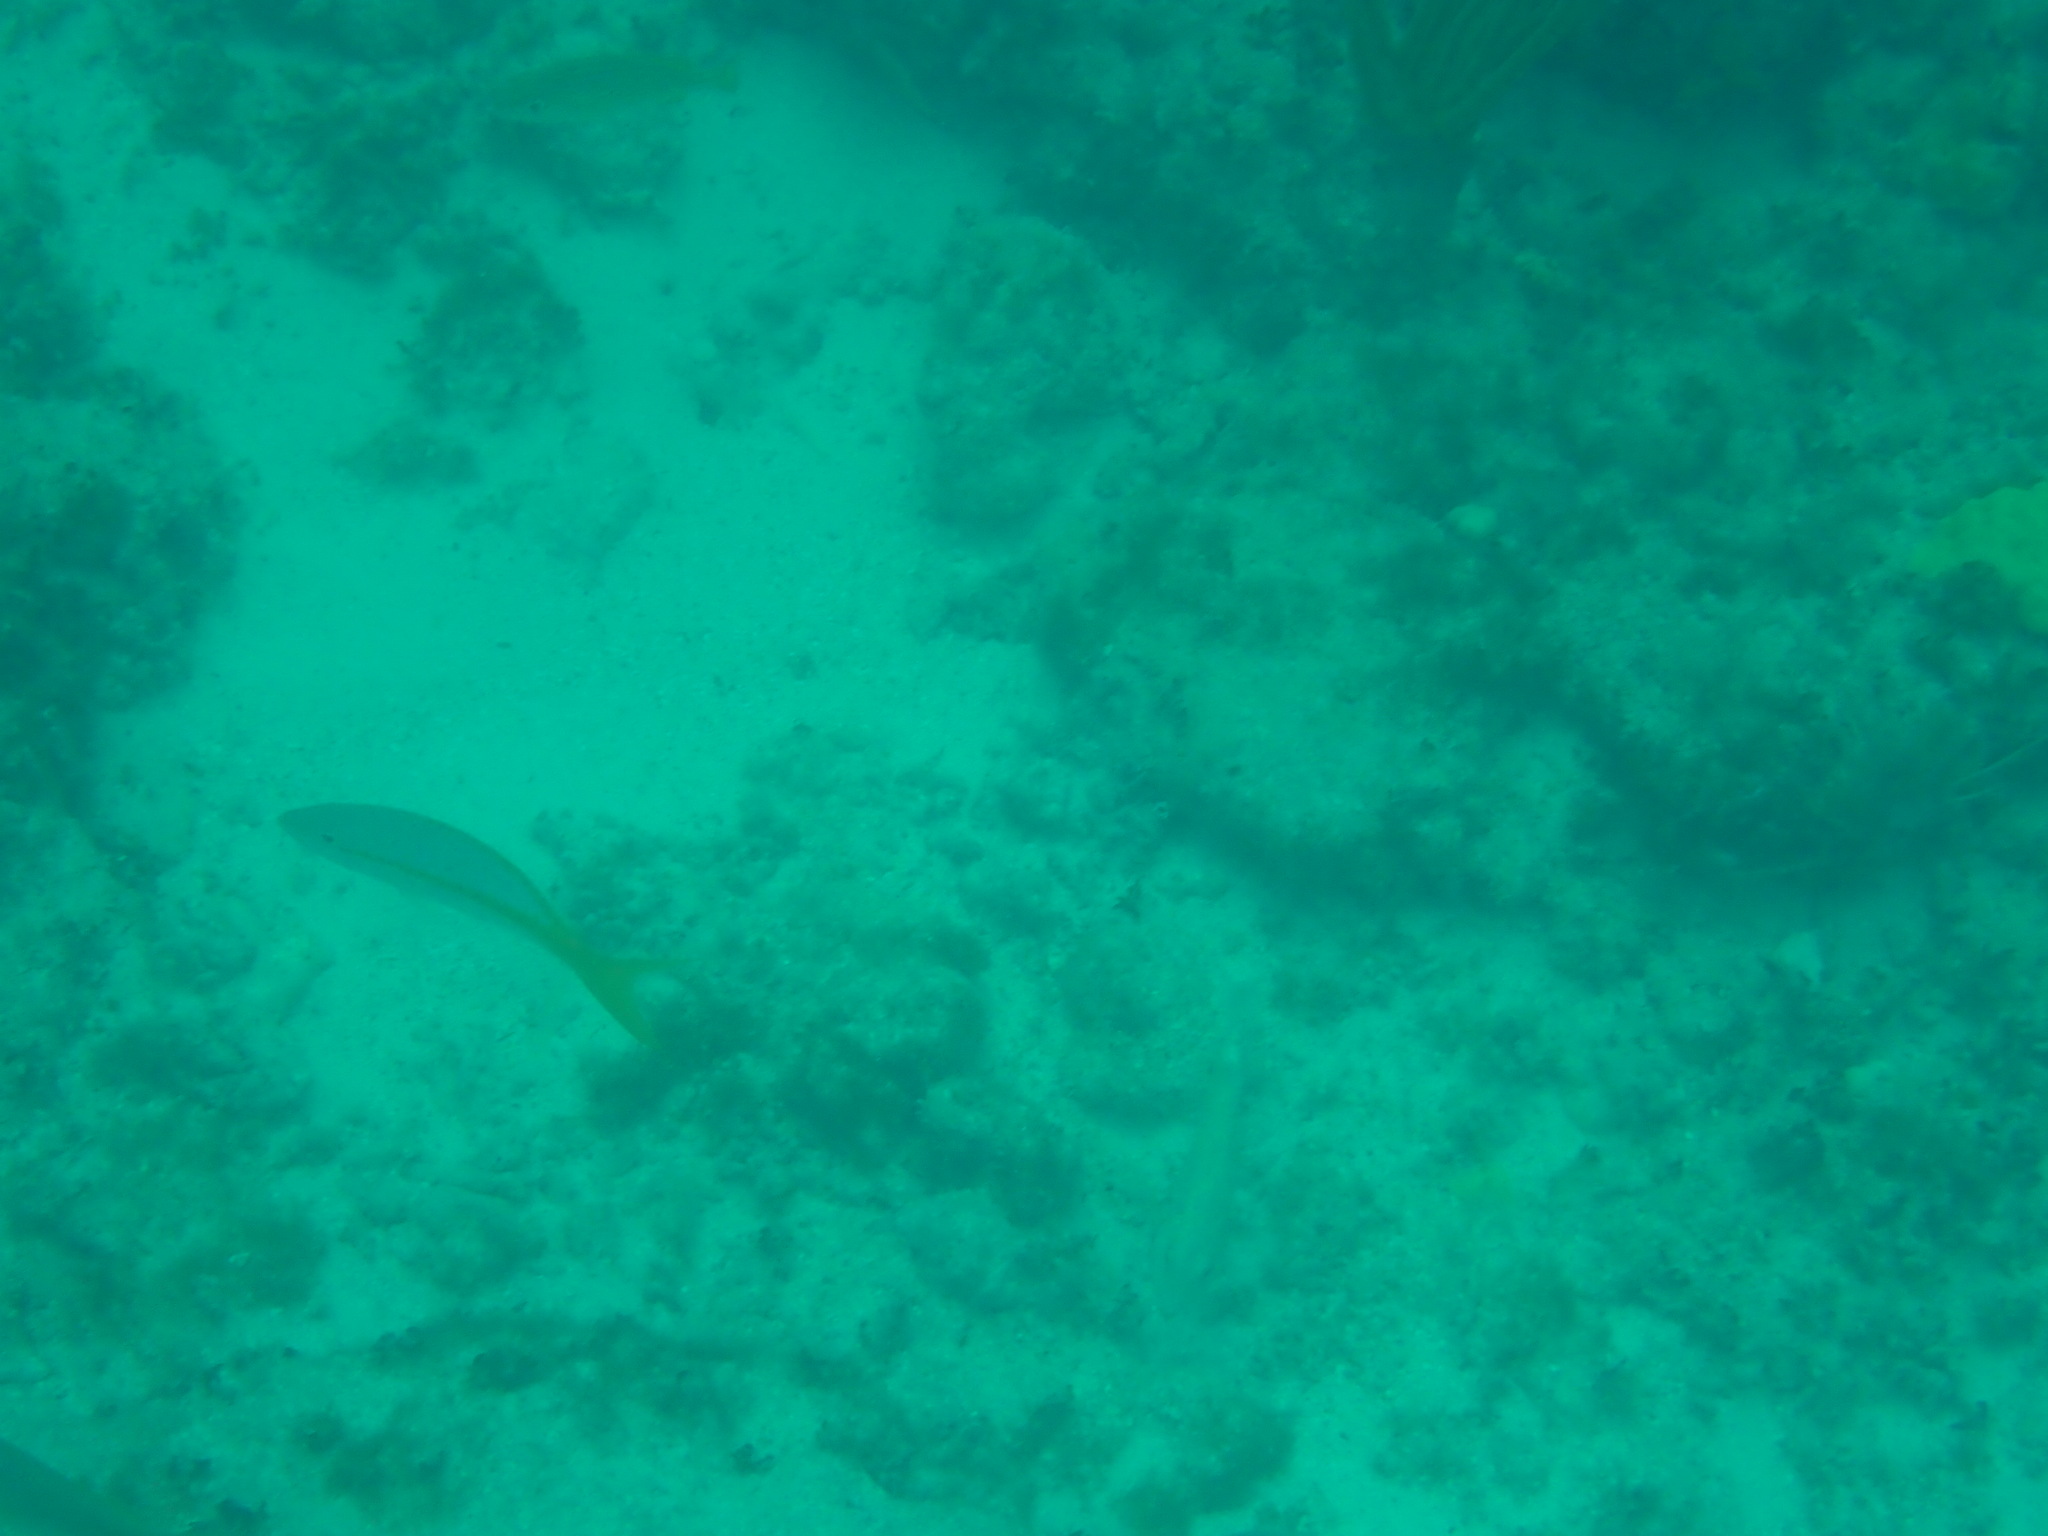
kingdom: Animalia
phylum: Chordata
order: Perciformes
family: Lutjanidae
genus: Ocyurus
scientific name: Ocyurus chrysurus
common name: Yellowtail snapper
